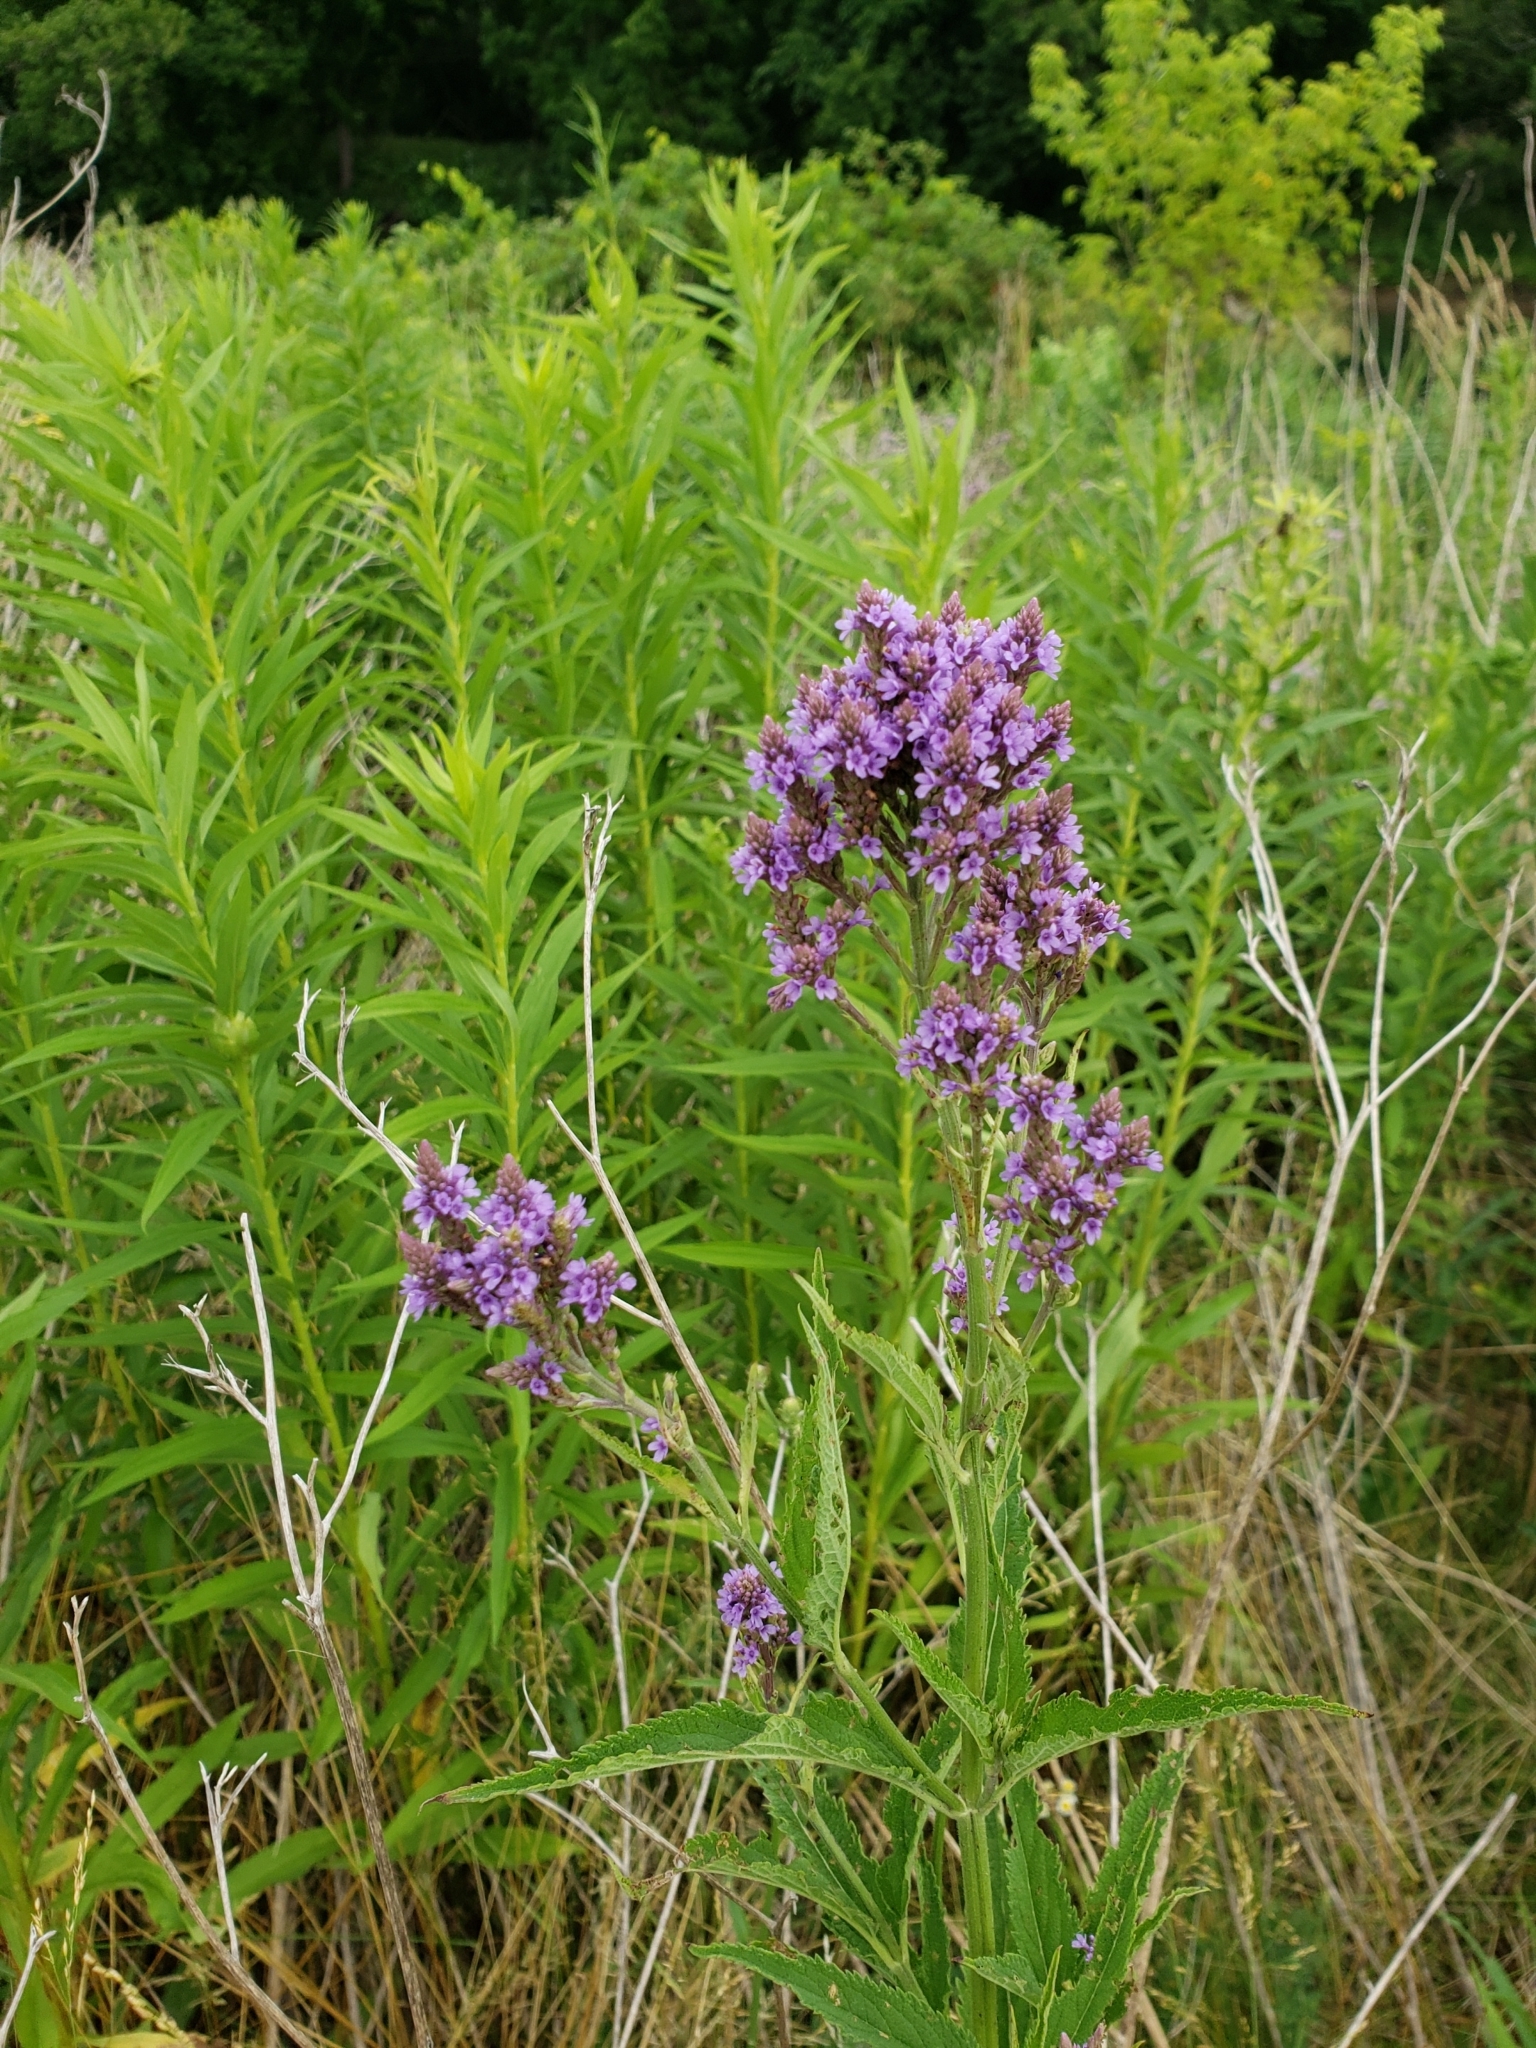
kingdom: Plantae
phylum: Tracheophyta
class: Magnoliopsida
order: Lamiales
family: Verbenaceae
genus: Verbena
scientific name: Verbena hastata
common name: American blue vervain
